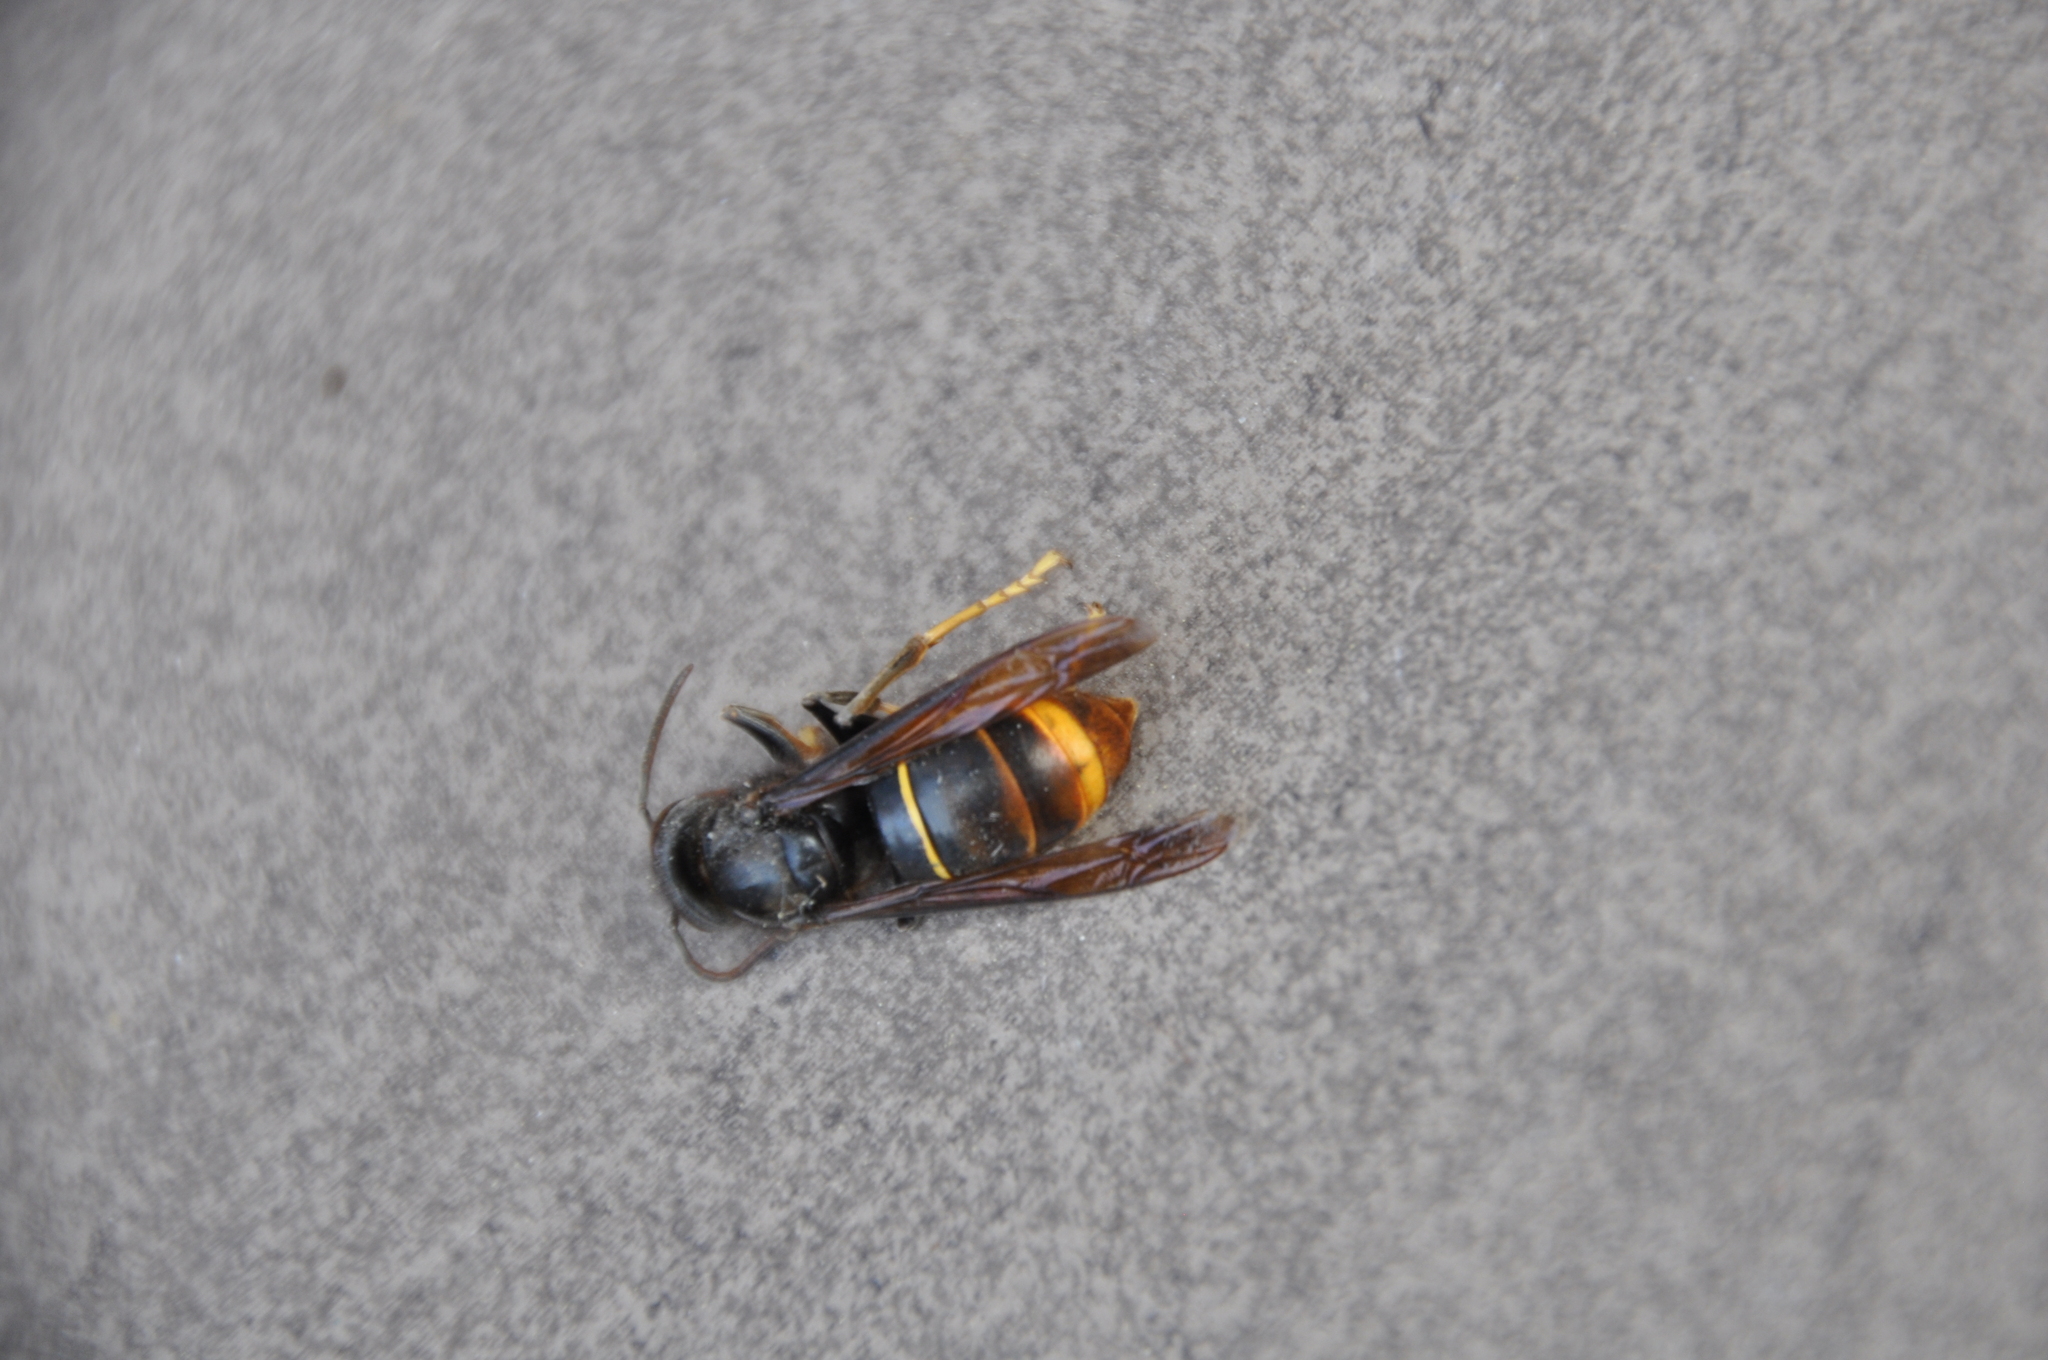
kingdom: Animalia
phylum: Arthropoda
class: Insecta
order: Hymenoptera
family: Vespidae
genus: Vespa
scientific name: Vespa velutina
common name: Asian hornet
